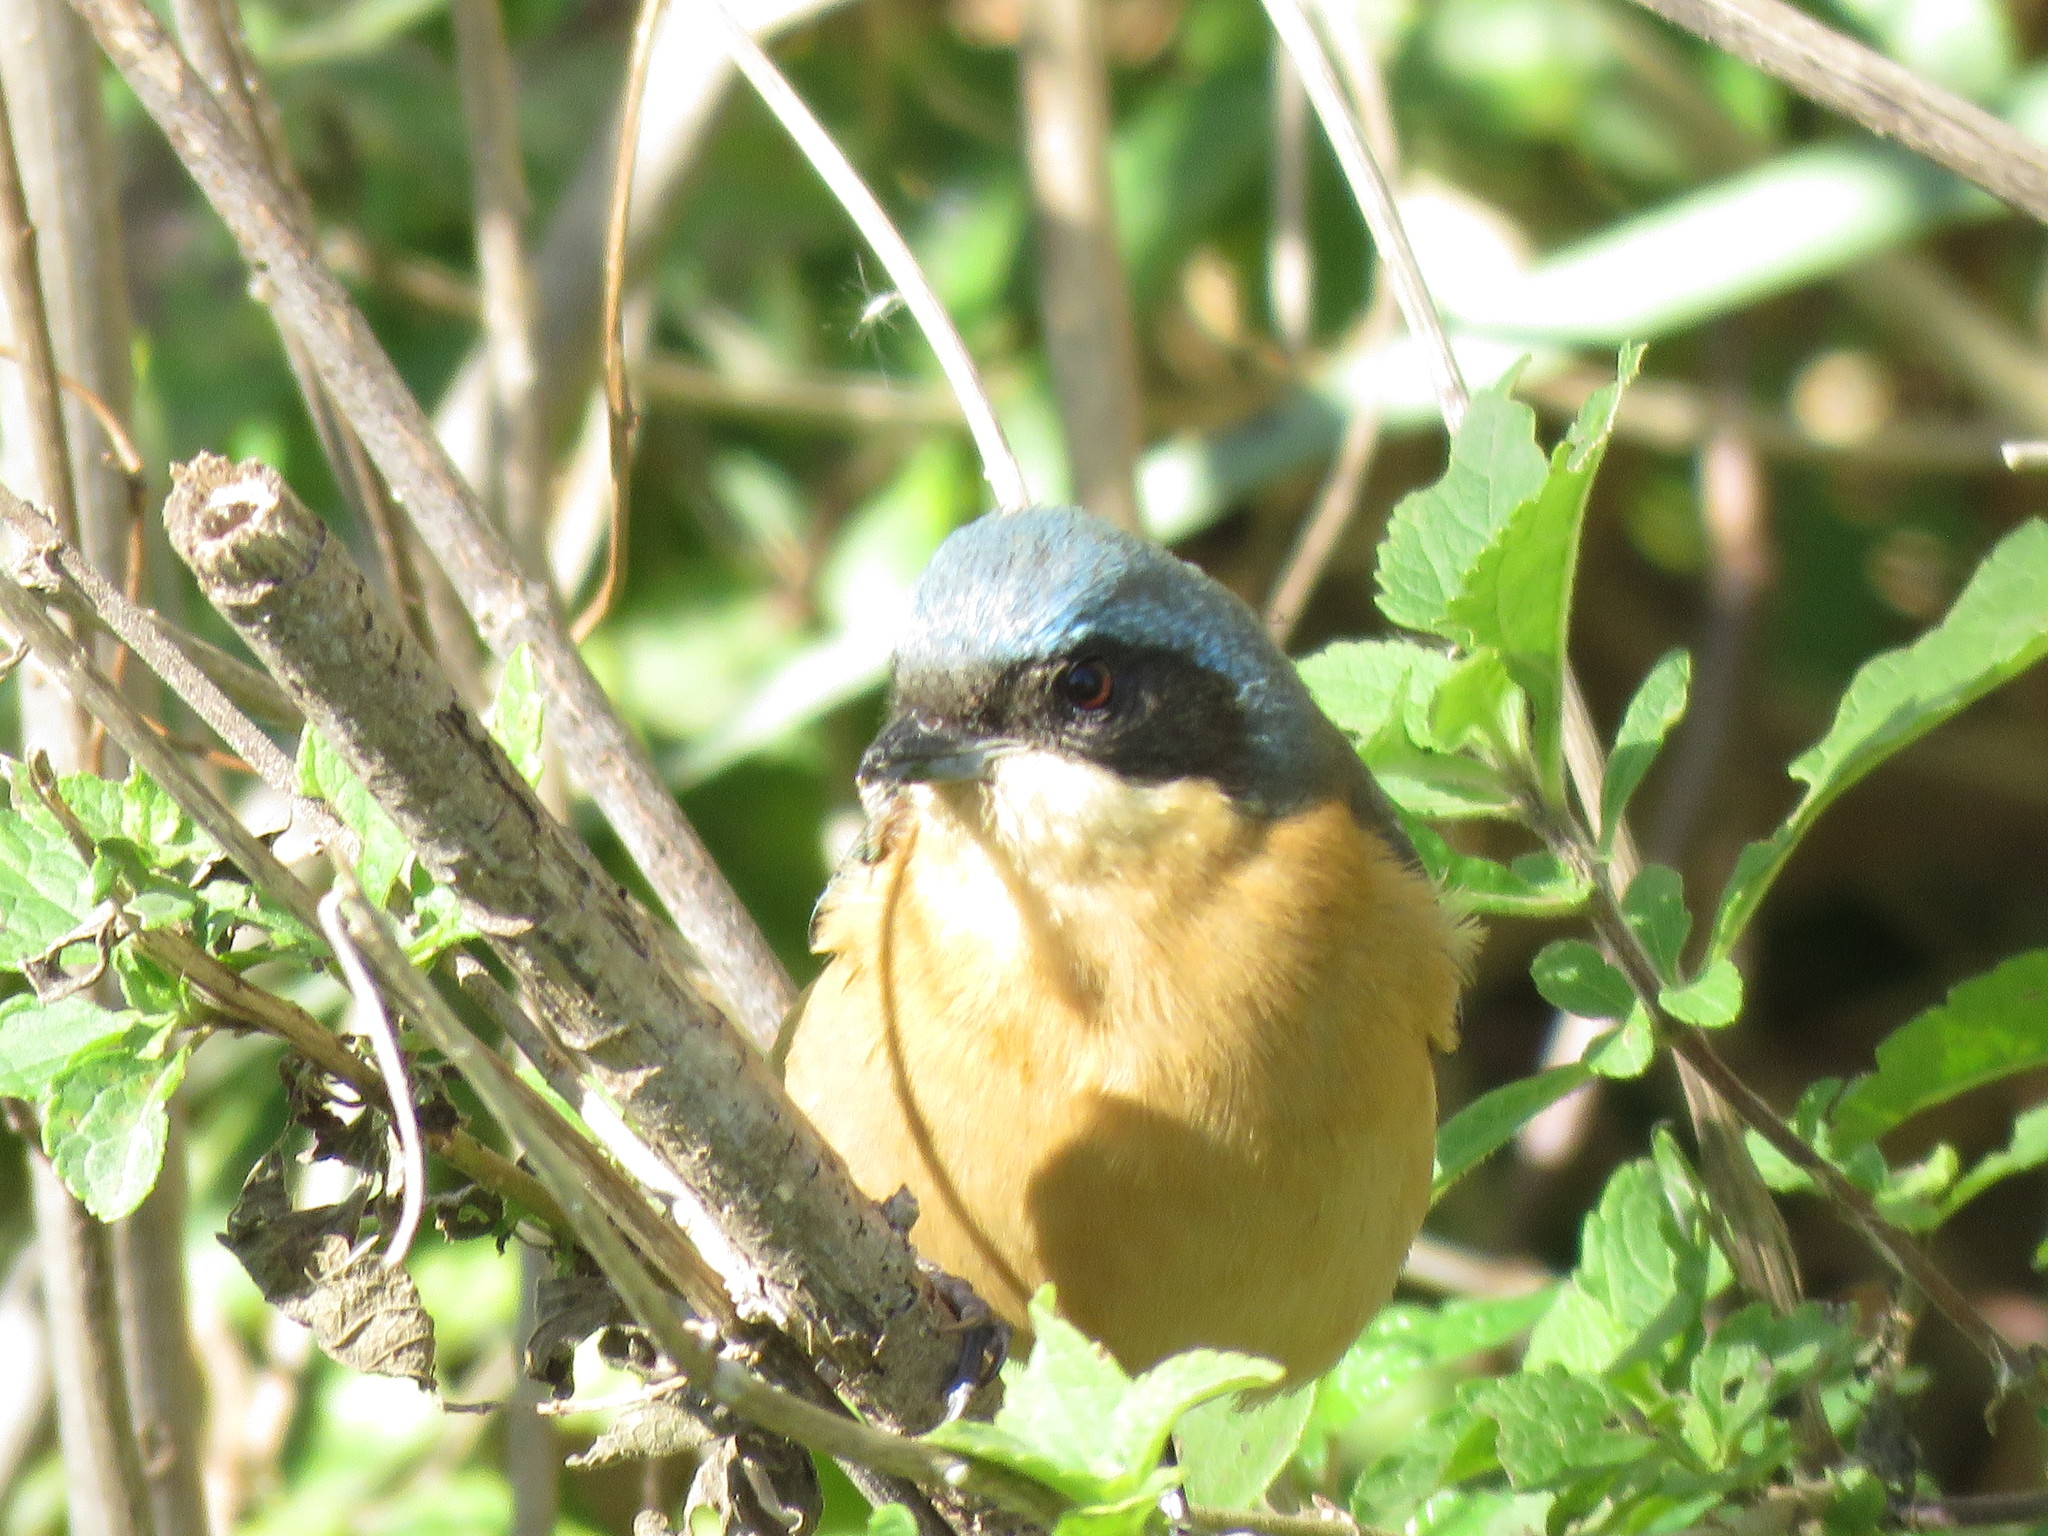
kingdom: Animalia
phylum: Chordata
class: Aves
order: Passeriformes
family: Thraupidae
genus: Pipraeidea
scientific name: Pipraeidea melanonota
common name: Fawn-breasted tanager
